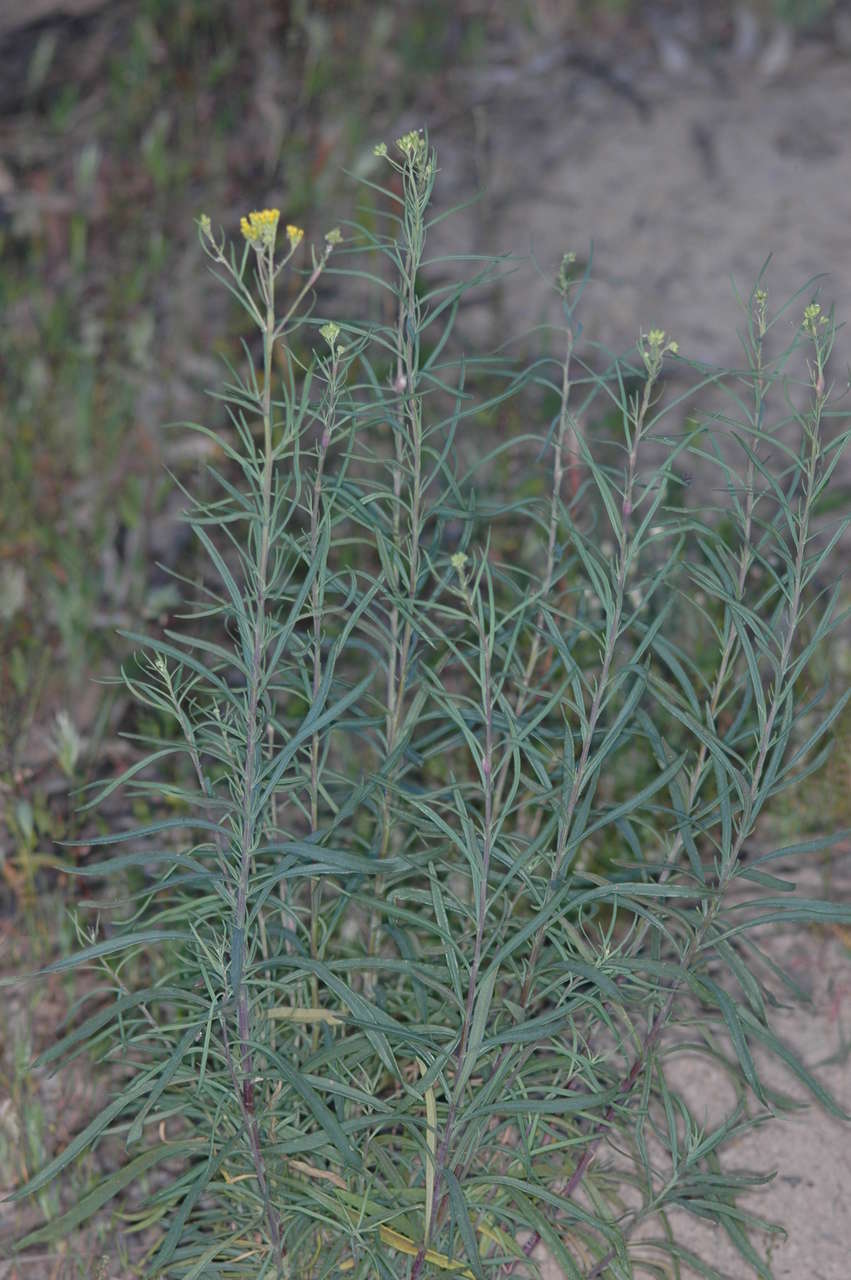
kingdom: Plantae
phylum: Tracheophyta
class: Magnoliopsida
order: Asterales
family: Asteraceae
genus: Senecio
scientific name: Senecio cunninghamii
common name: Bushy groundsel
